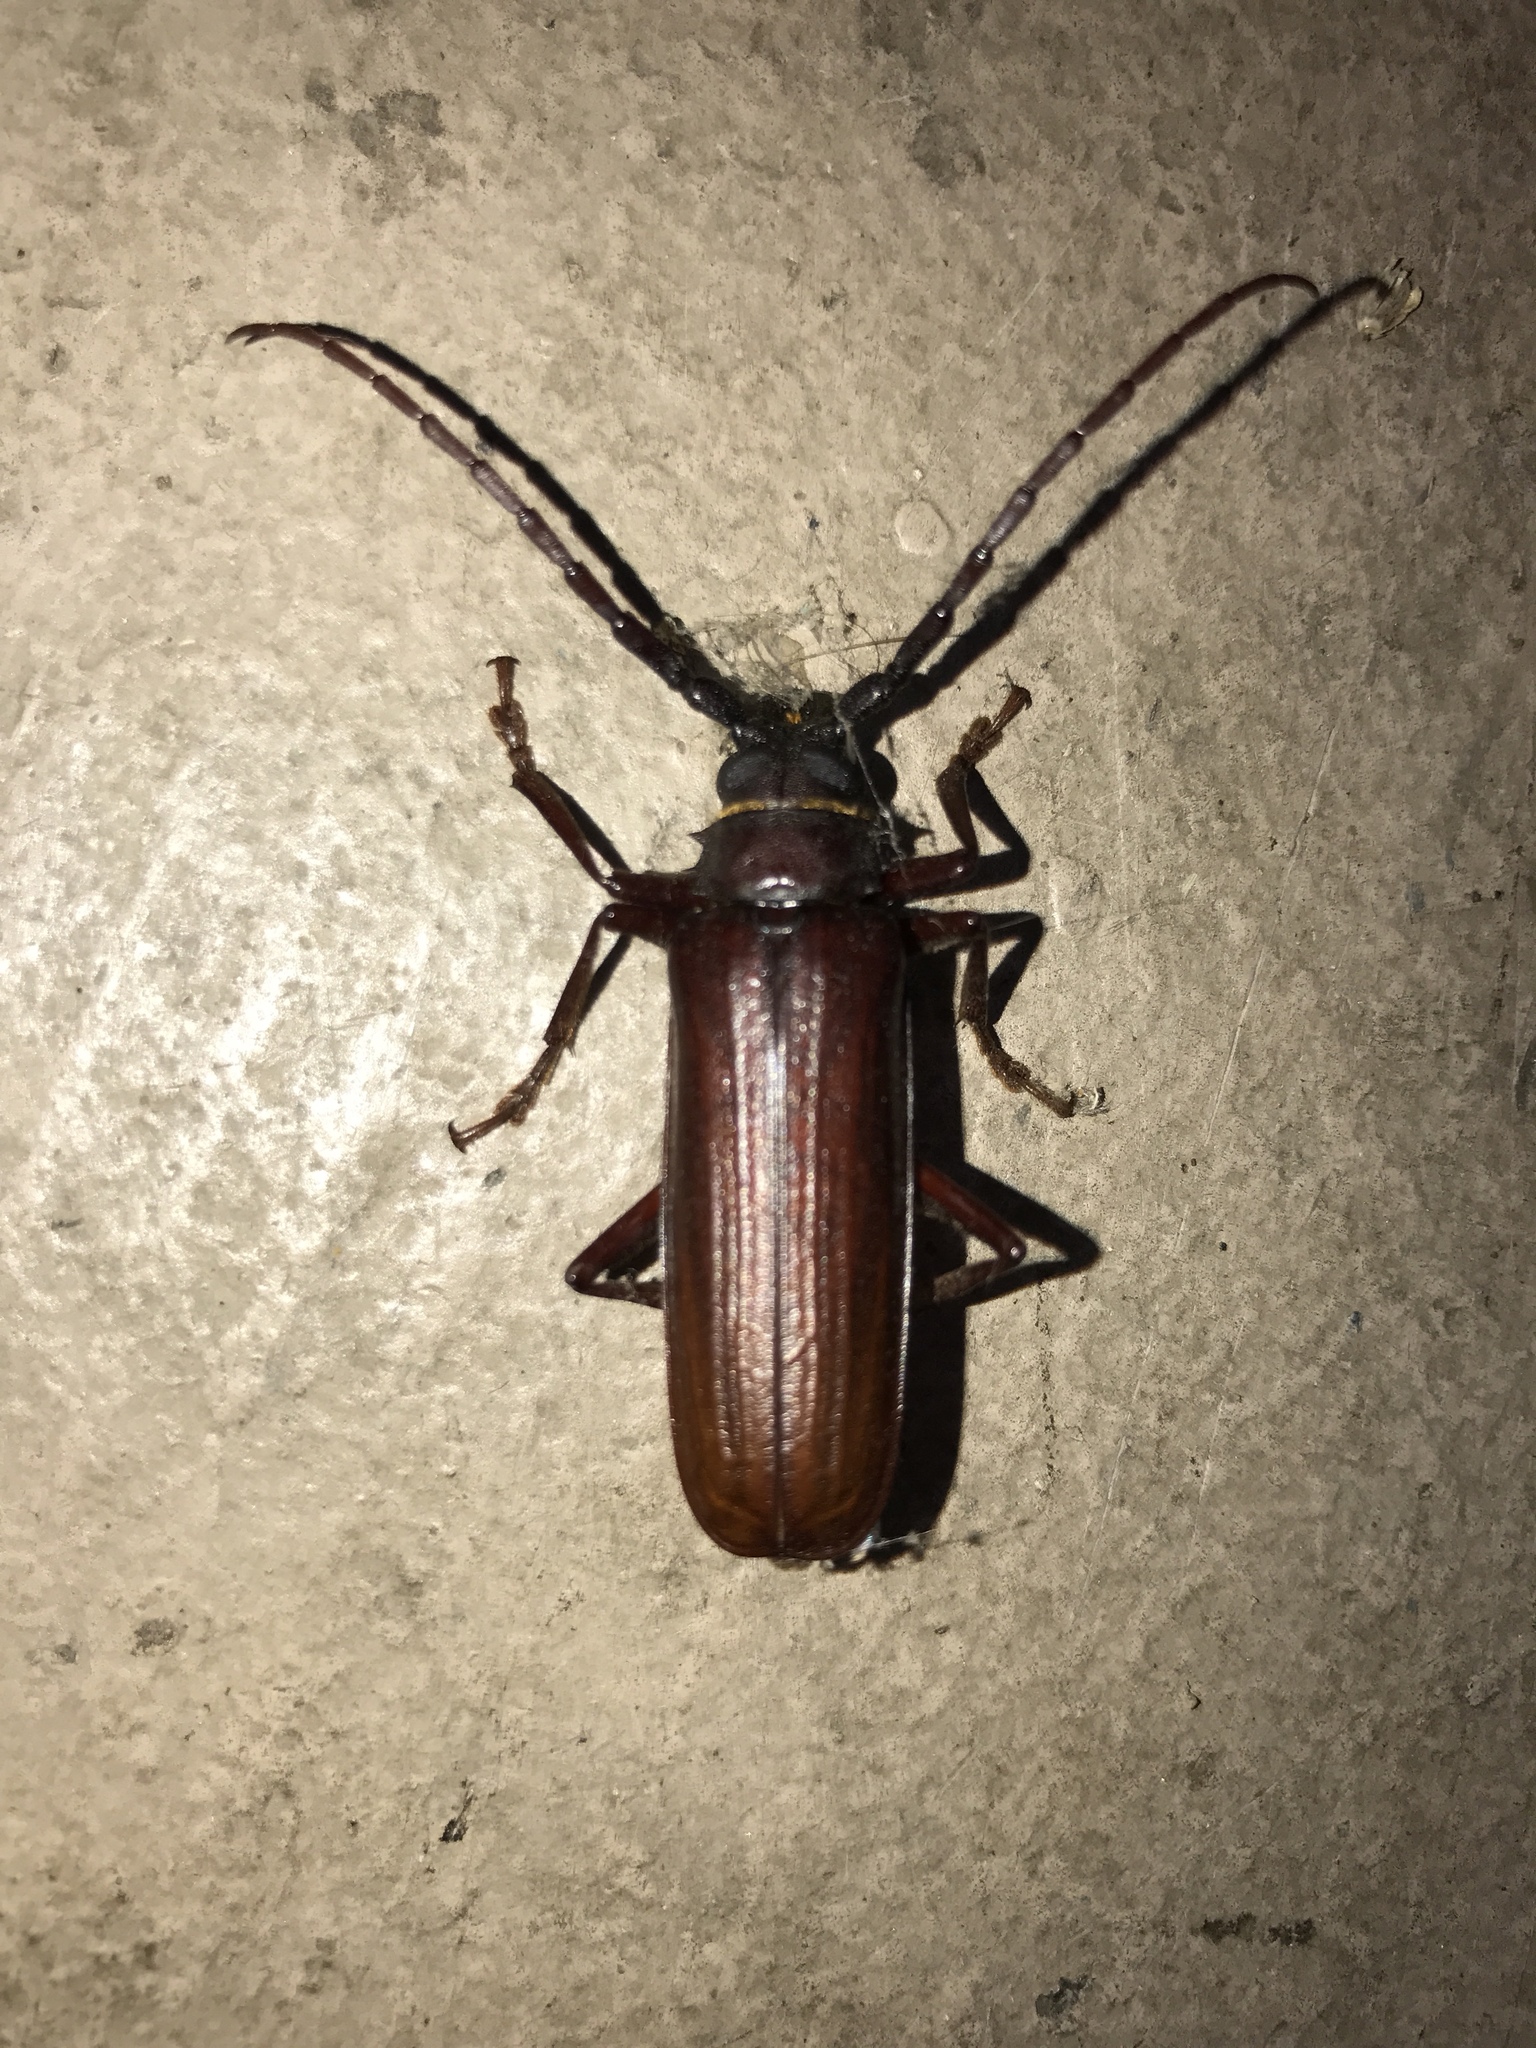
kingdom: Animalia
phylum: Arthropoda
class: Insecta
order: Coleoptera
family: Cerambycidae
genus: Orthosoma
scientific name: Orthosoma brunneum
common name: Brown prionid beetle
